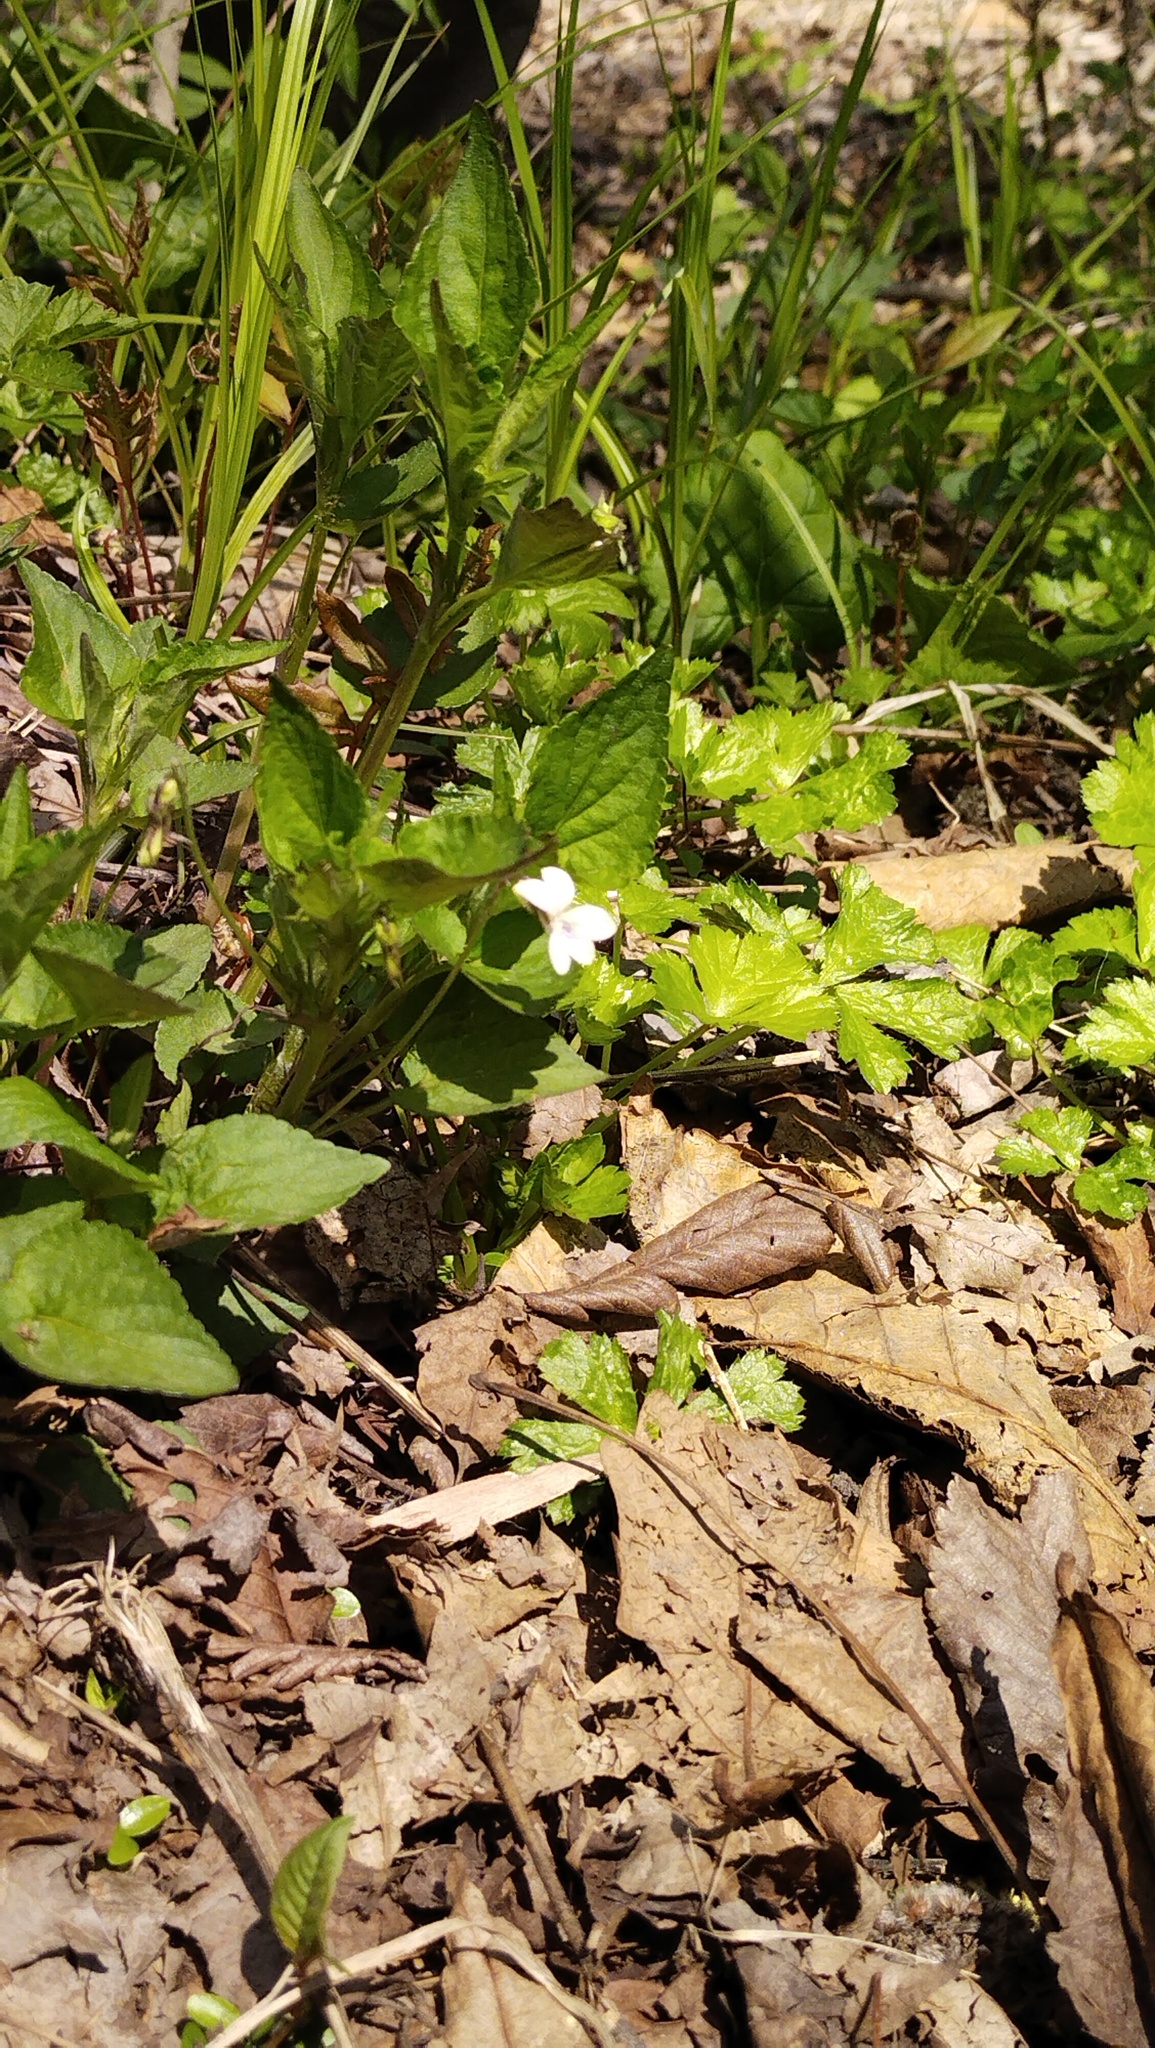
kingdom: Plantae
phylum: Tracheophyta
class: Magnoliopsida
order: Malpighiales
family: Violaceae
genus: Viola
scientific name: Viola acuminata
